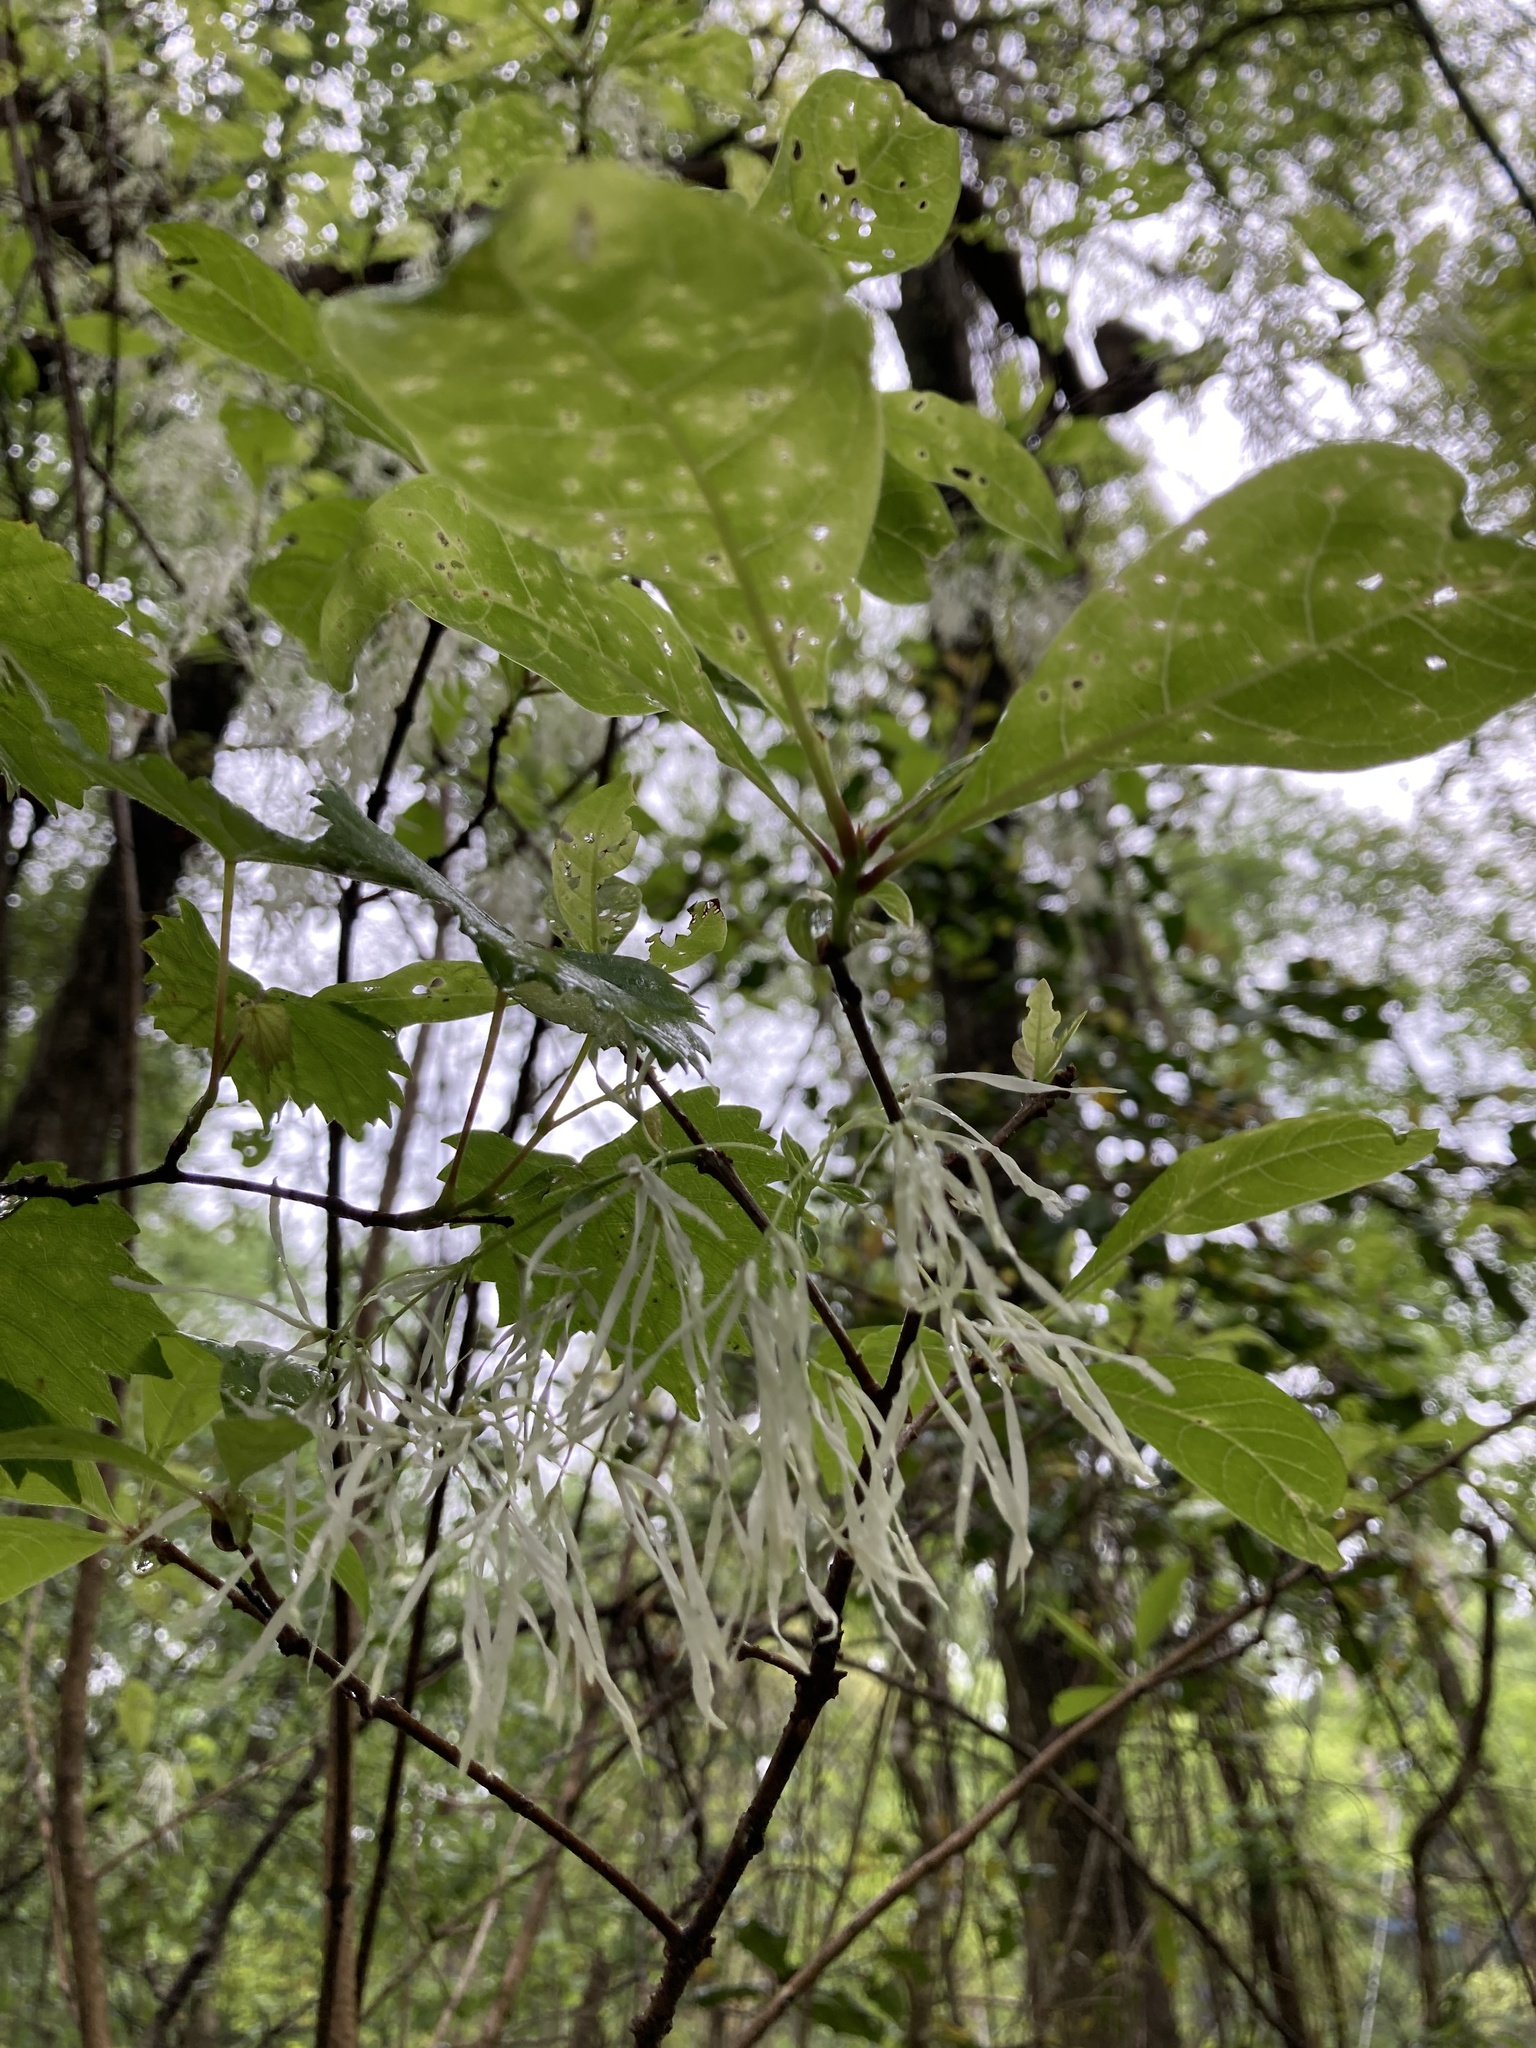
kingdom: Plantae
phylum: Tracheophyta
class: Magnoliopsida
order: Lamiales
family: Oleaceae
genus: Chionanthus
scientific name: Chionanthus virginicus
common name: American fringetree
